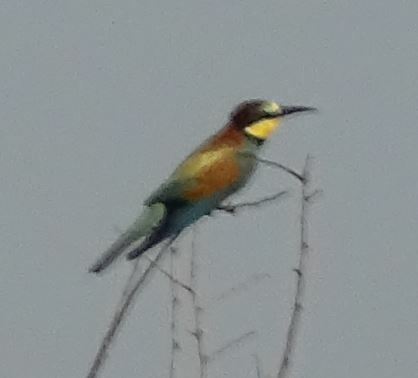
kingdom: Animalia
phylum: Chordata
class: Aves
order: Coraciiformes
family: Meropidae
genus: Merops
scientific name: Merops apiaster
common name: European bee-eater
